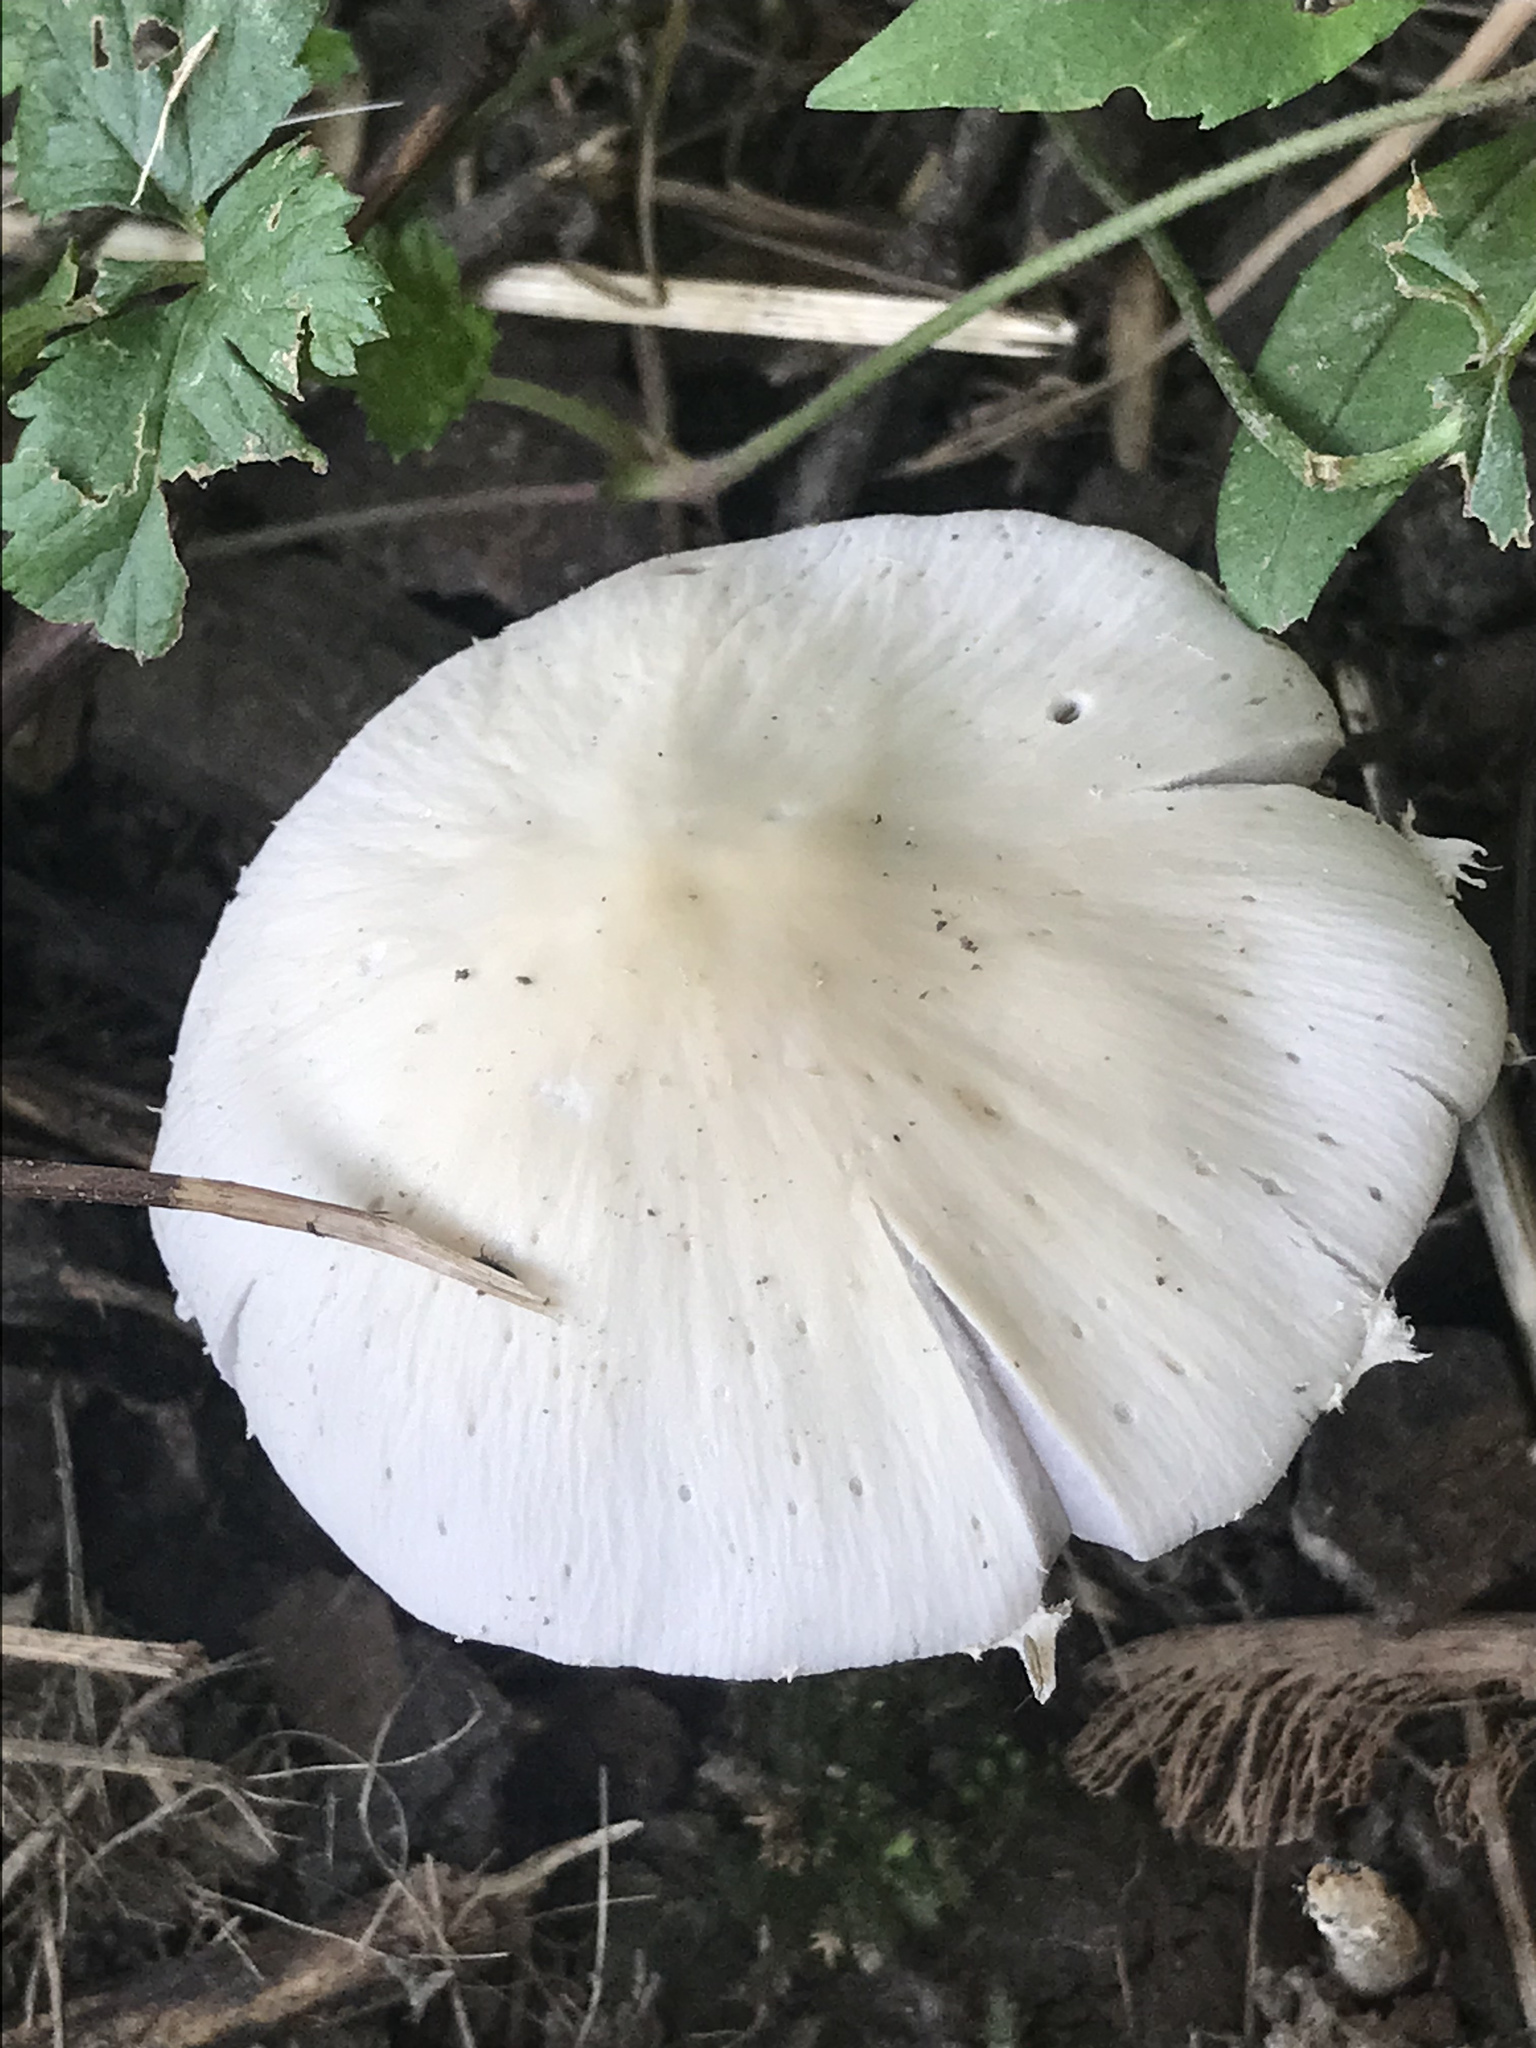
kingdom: Fungi
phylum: Basidiomycota
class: Agaricomycetes
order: Agaricales
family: Psathyrellaceae
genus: Candolleomyces
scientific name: Candolleomyces candolleanus
